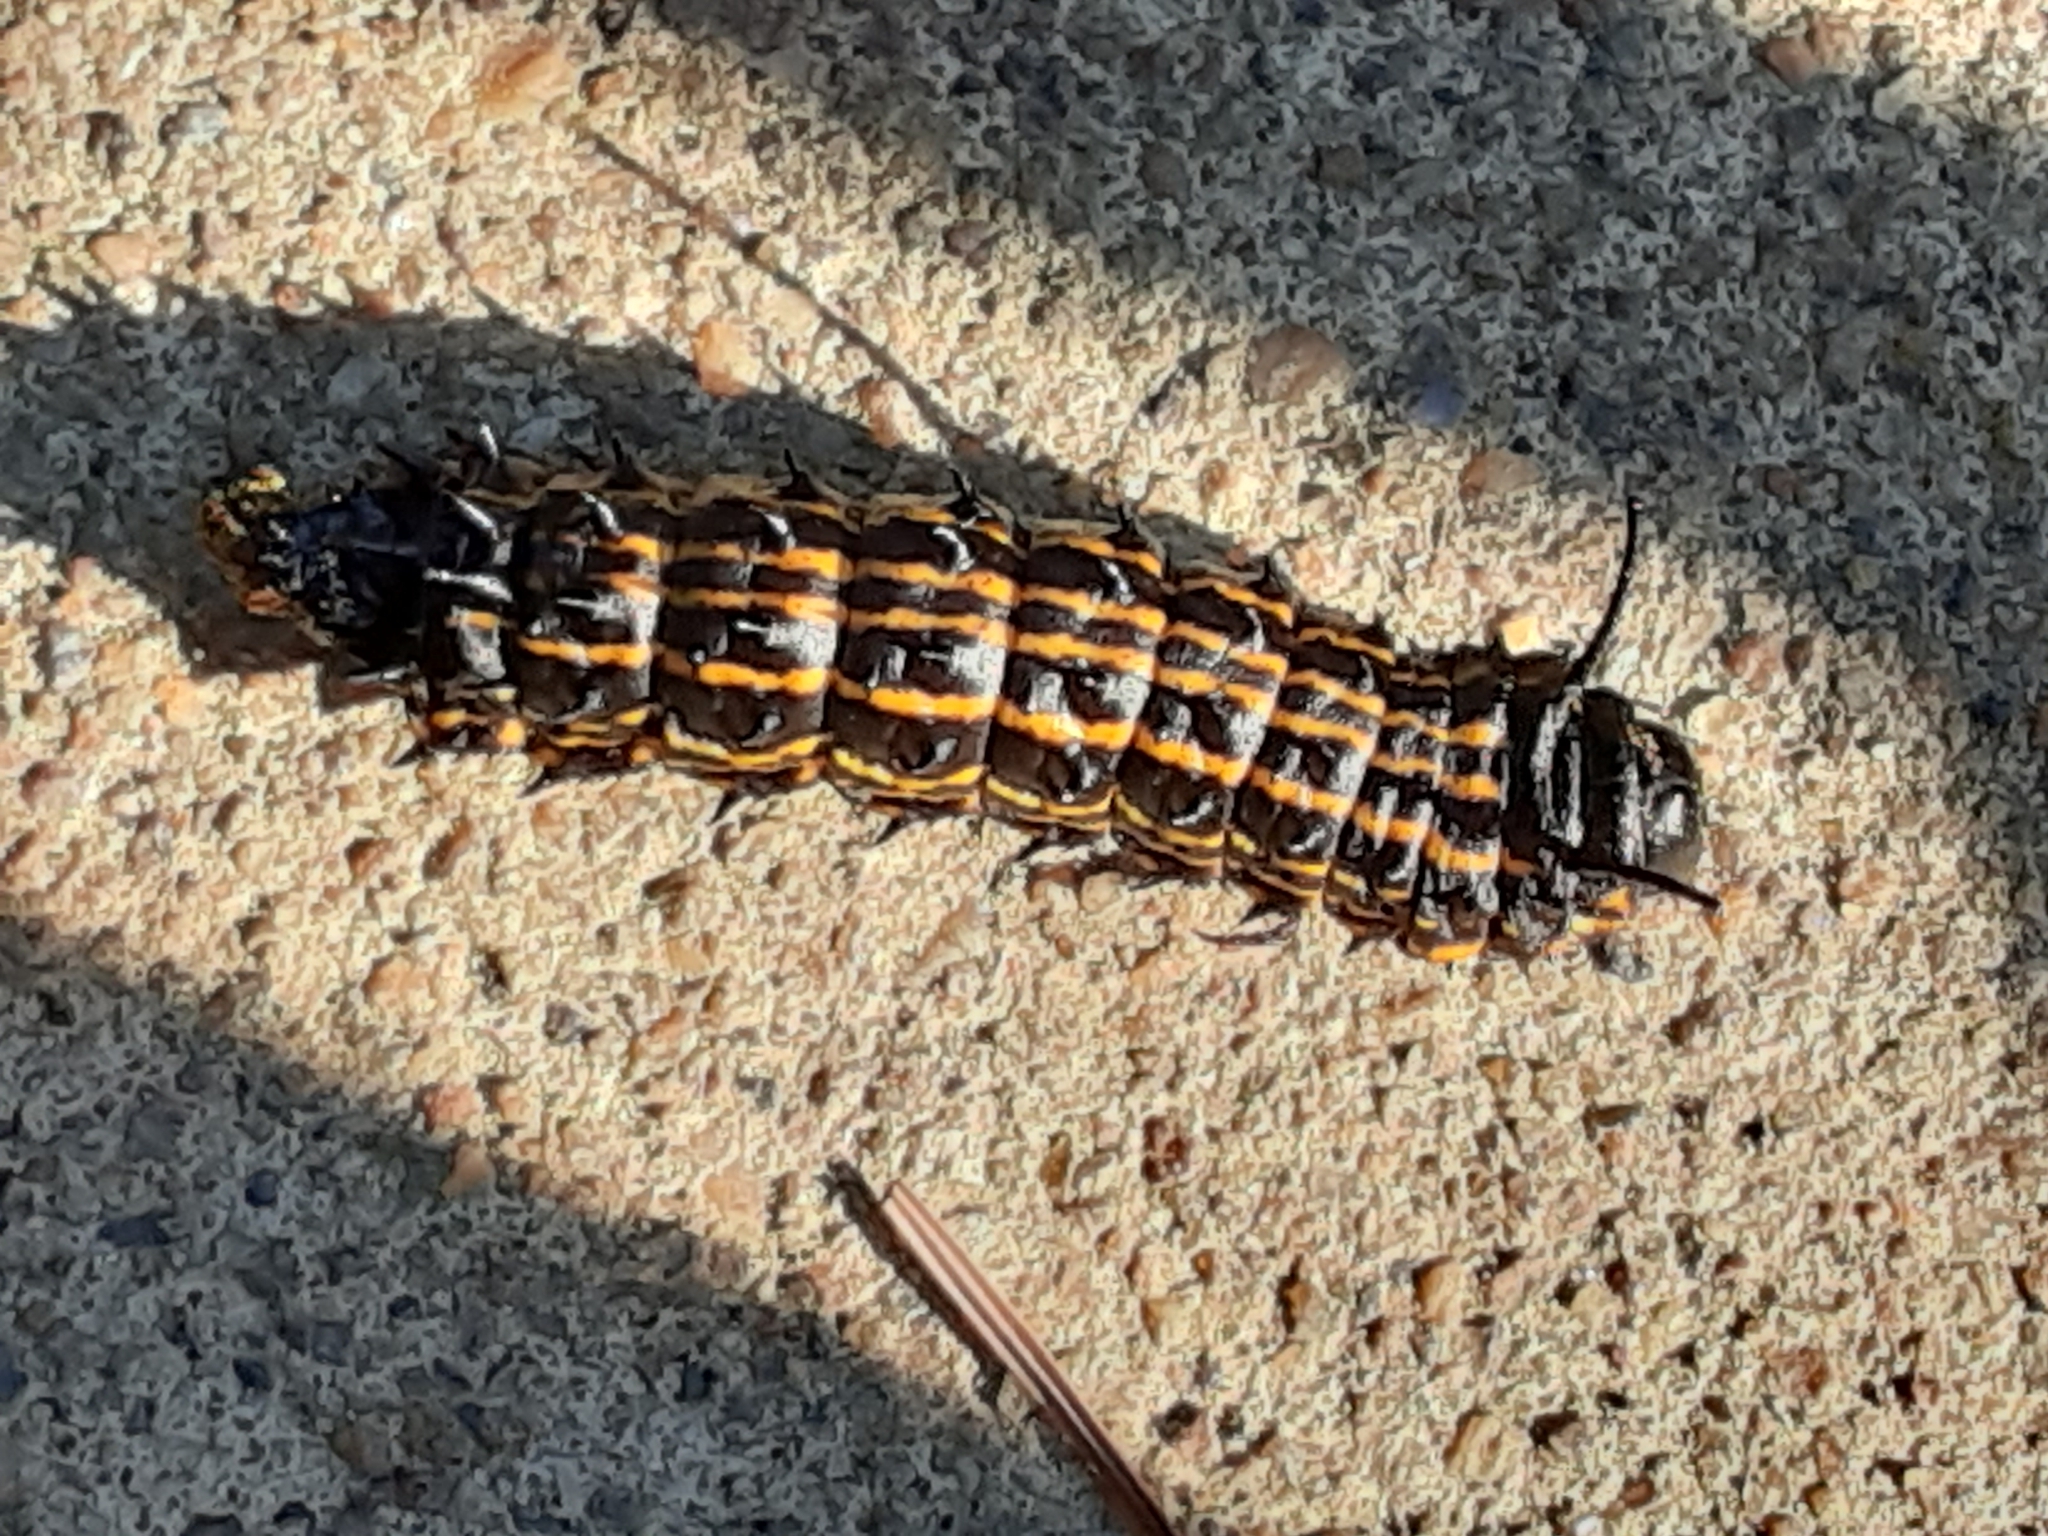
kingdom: Animalia
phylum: Arthropoda
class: Insecta
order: Lepidoptera
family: Saturniidae
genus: Anisota
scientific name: Anisota senatoria
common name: Orange-striped oakworm moth
